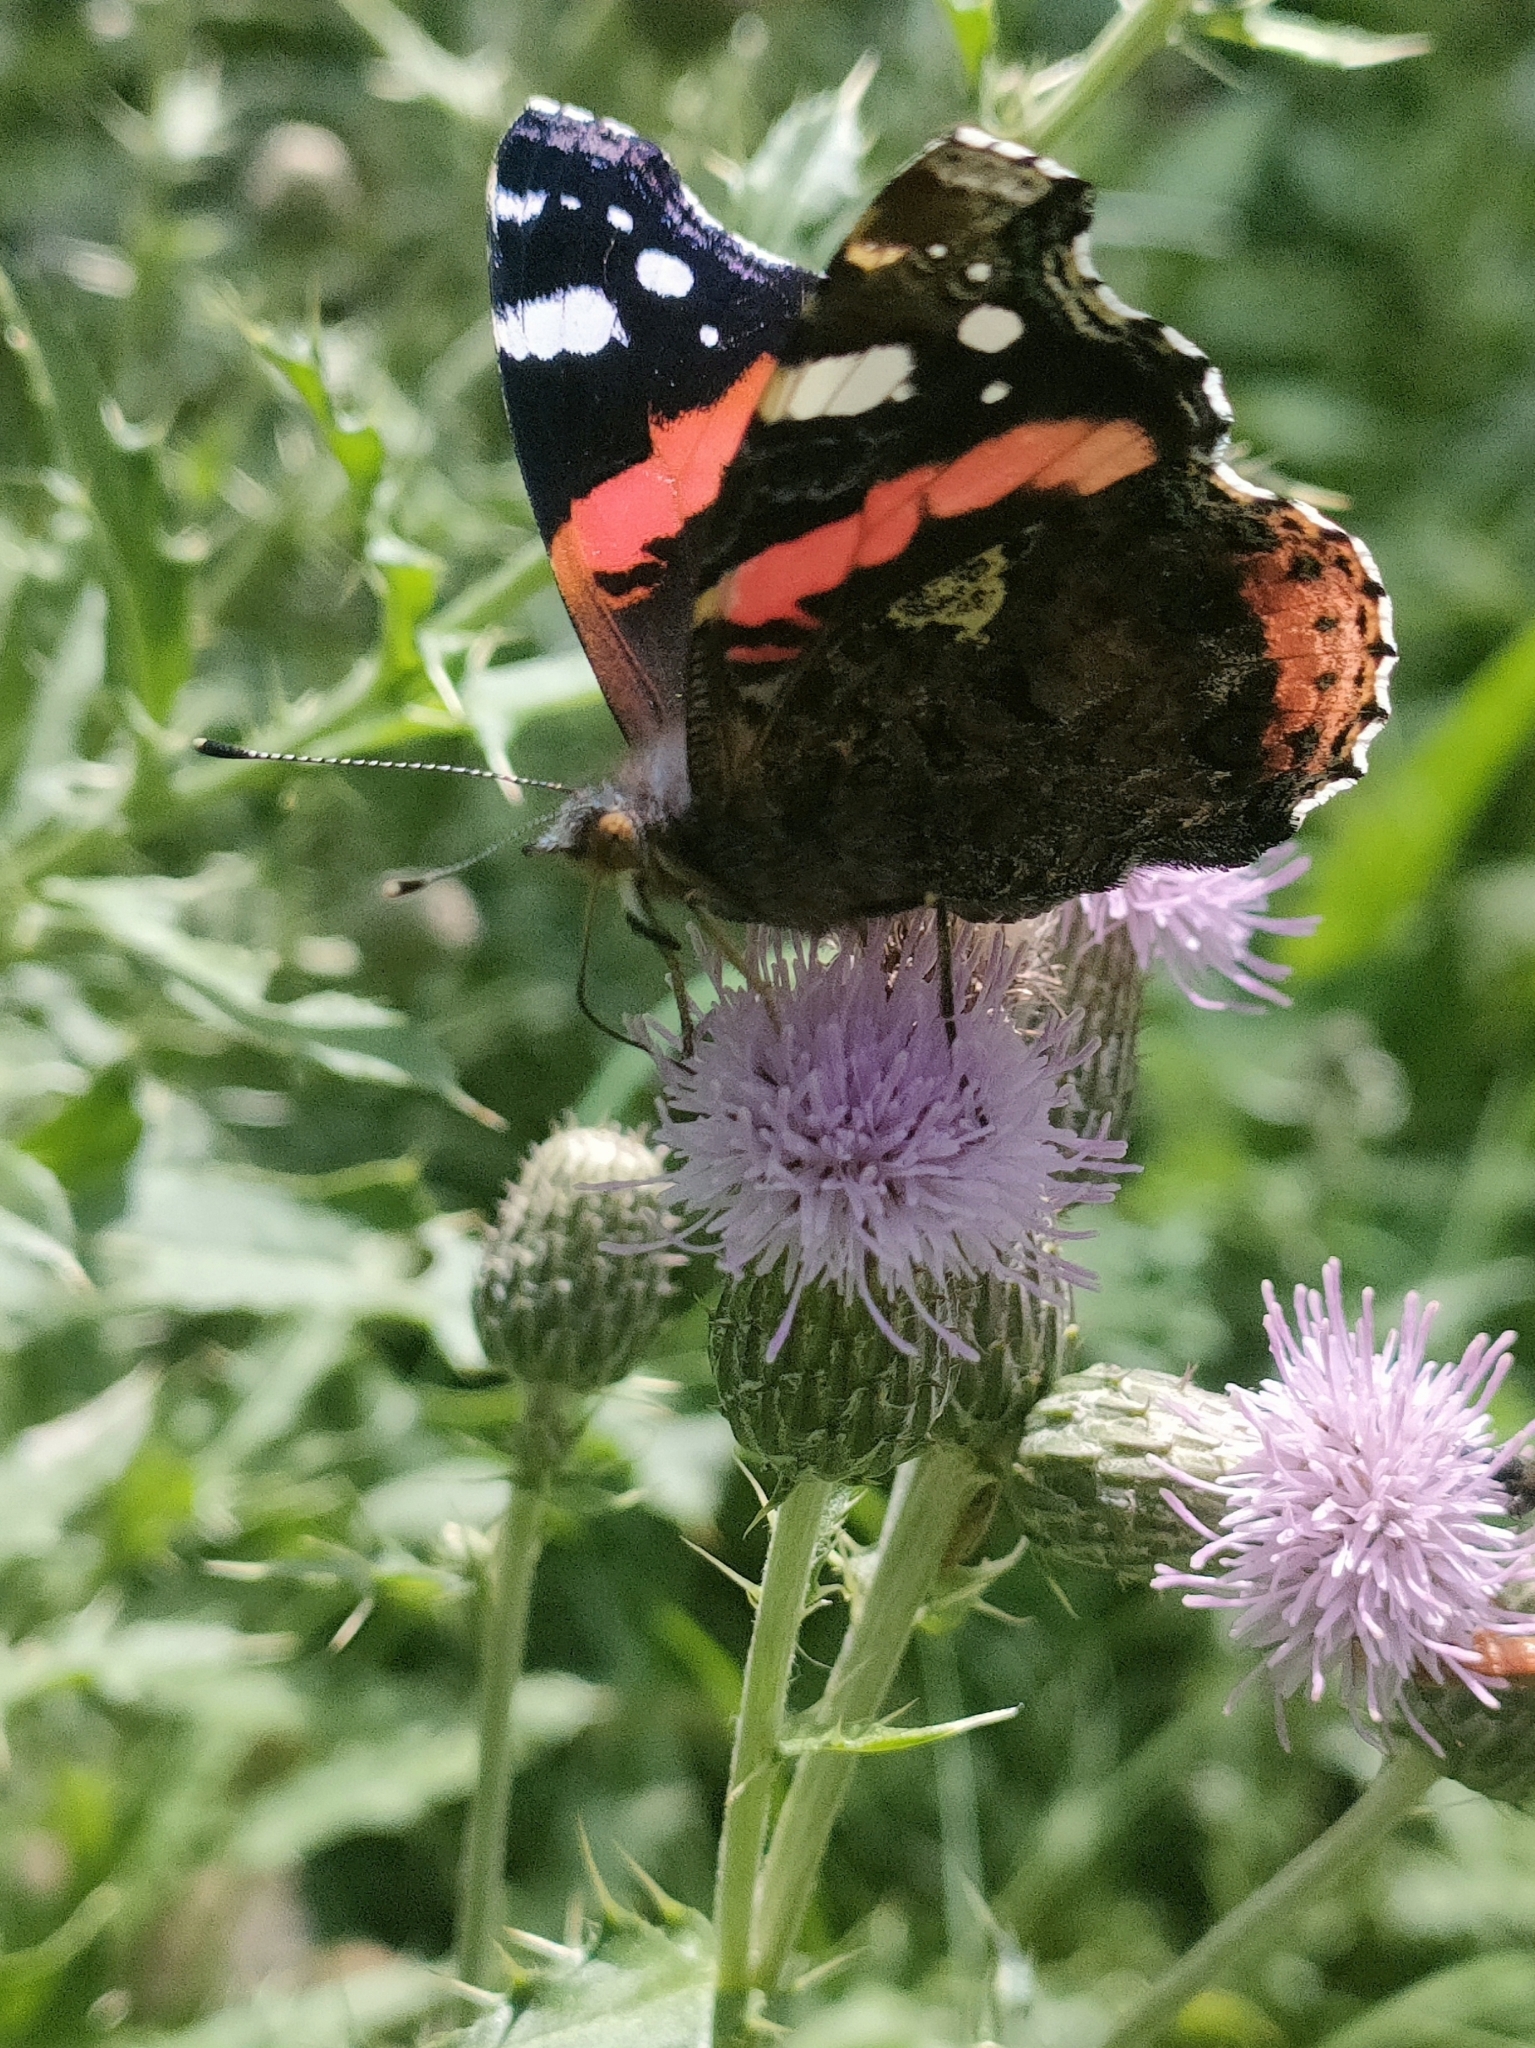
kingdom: Animalia
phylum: Arthropoda
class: Insecta
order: Lepidoptera
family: Nymphalidae
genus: Vanessa
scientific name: Vanessa atalanta
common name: Red admiral
